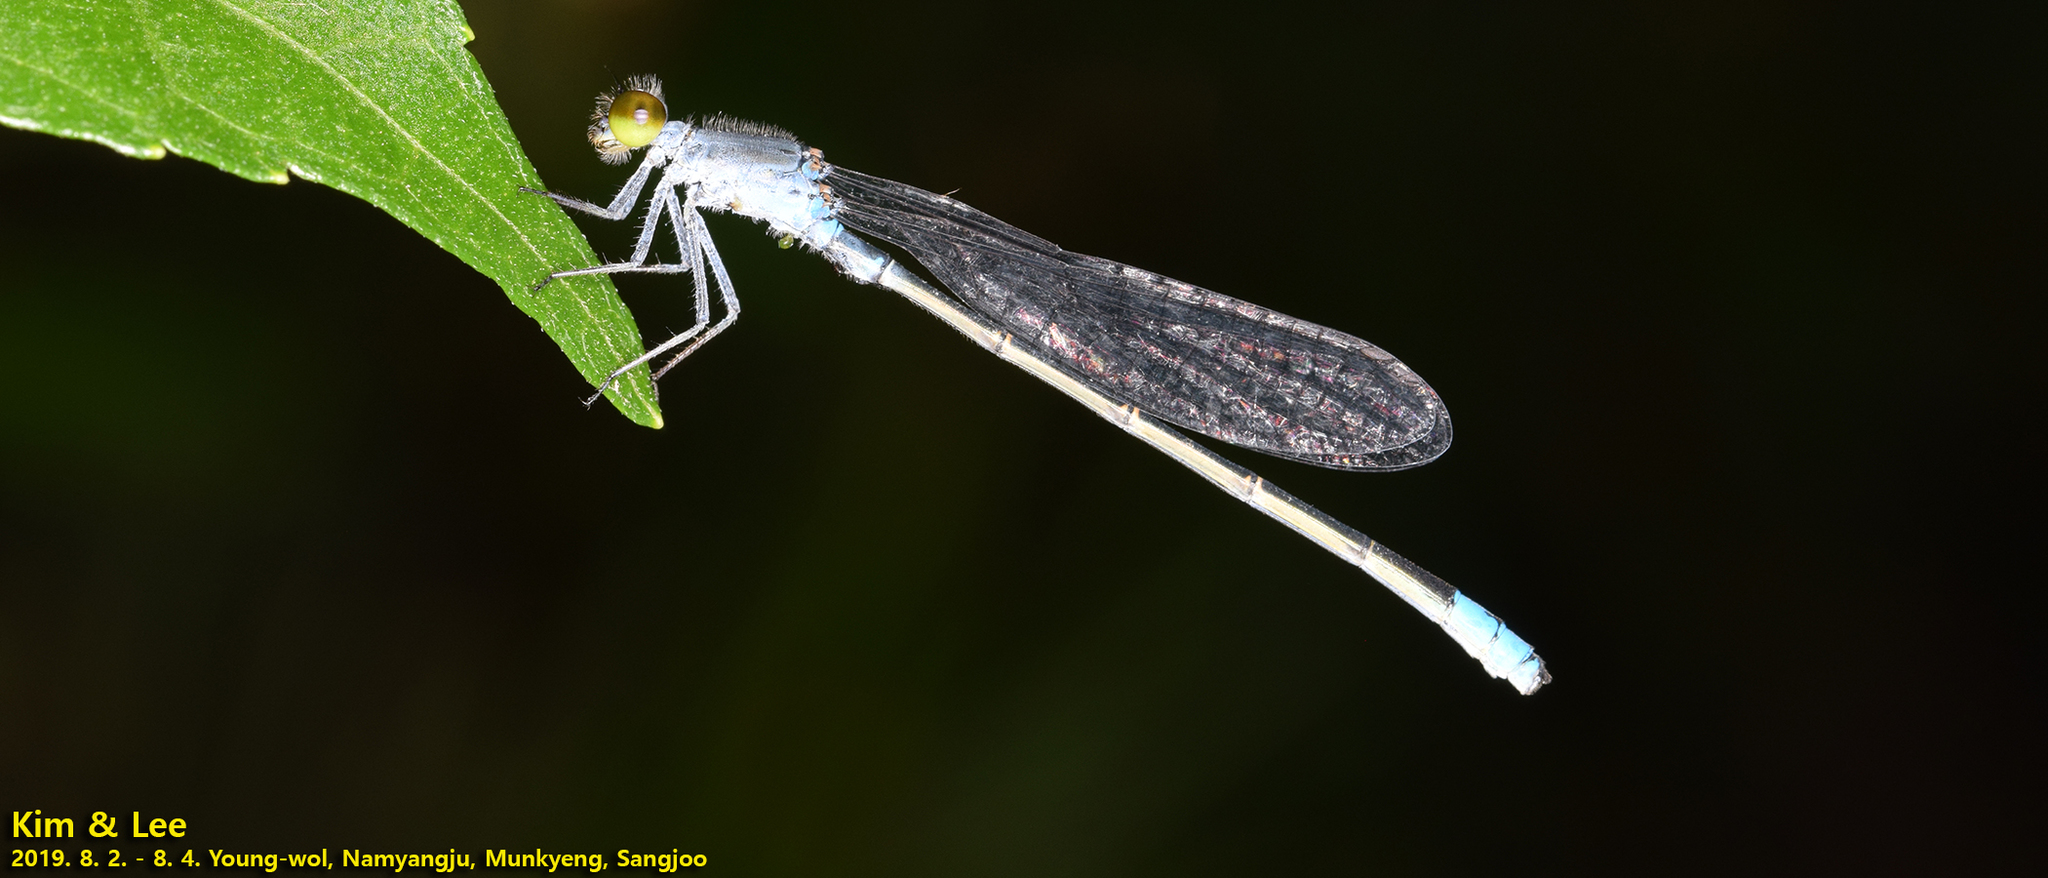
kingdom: Animalia
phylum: Arthropoda
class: Insecta
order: Odonata
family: Coenagrionidae
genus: Paracercion
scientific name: Paracercion calamorum
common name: Dusky lilysquatter
